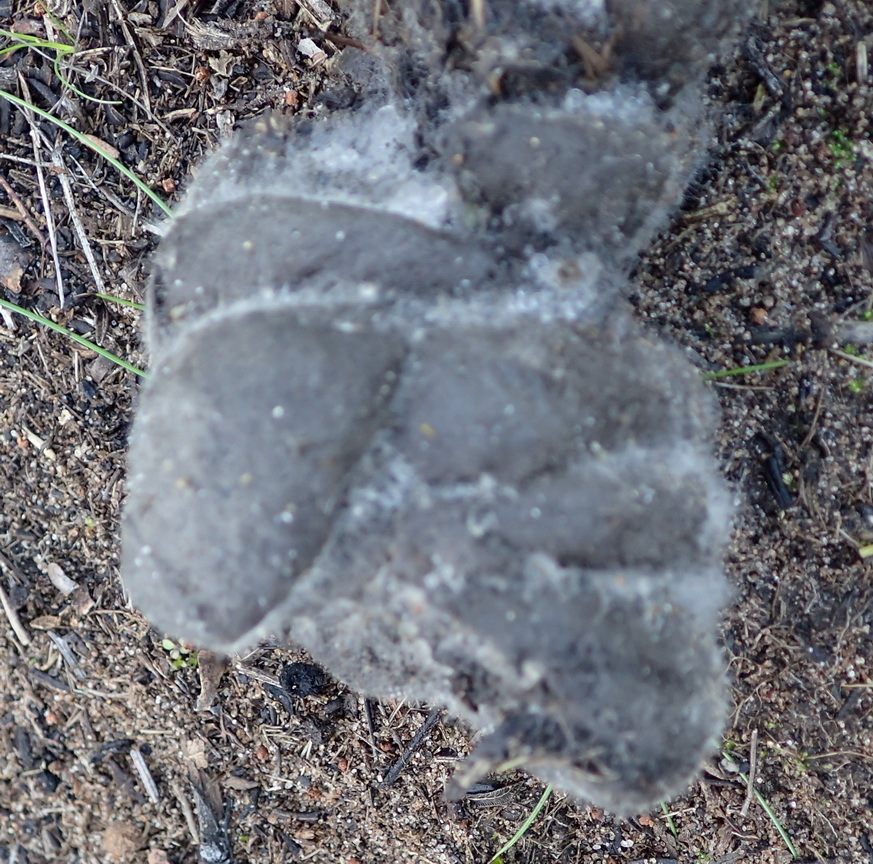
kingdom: Animalia
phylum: Chordata
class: Mammalia
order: Artiodactyla
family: Suidae
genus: Potamochoerus
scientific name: Potamochoerus larvatus
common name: Bushpig
